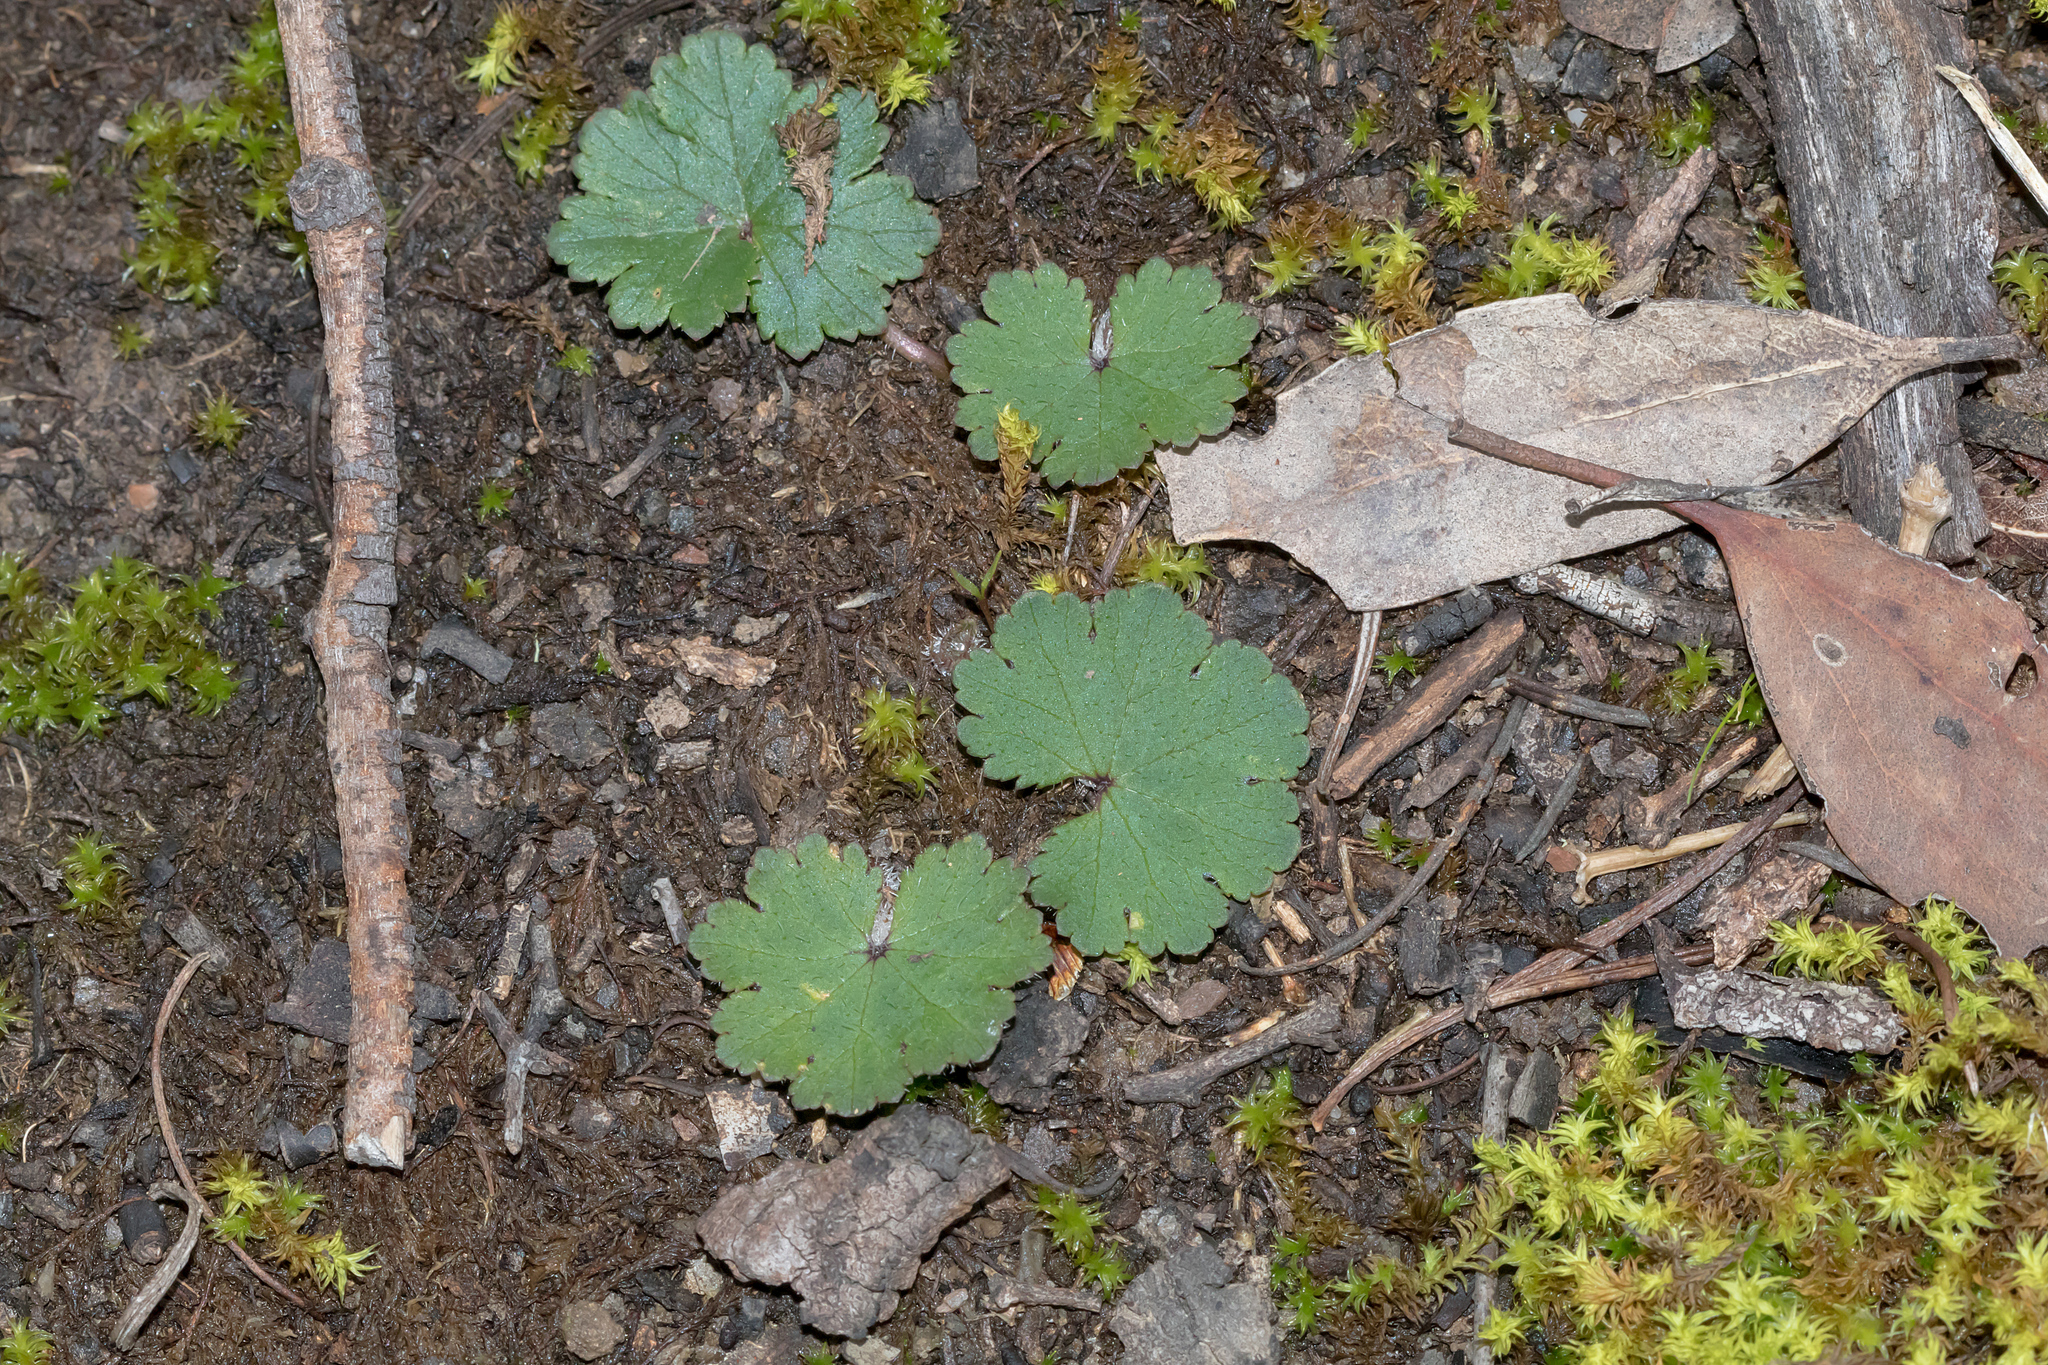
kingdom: Plantae
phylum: Tracheophyta
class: Magnoliopsida
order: Apiales
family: Araliaceae
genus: Hydrocotyle
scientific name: Hydrocotyle laxiflora
